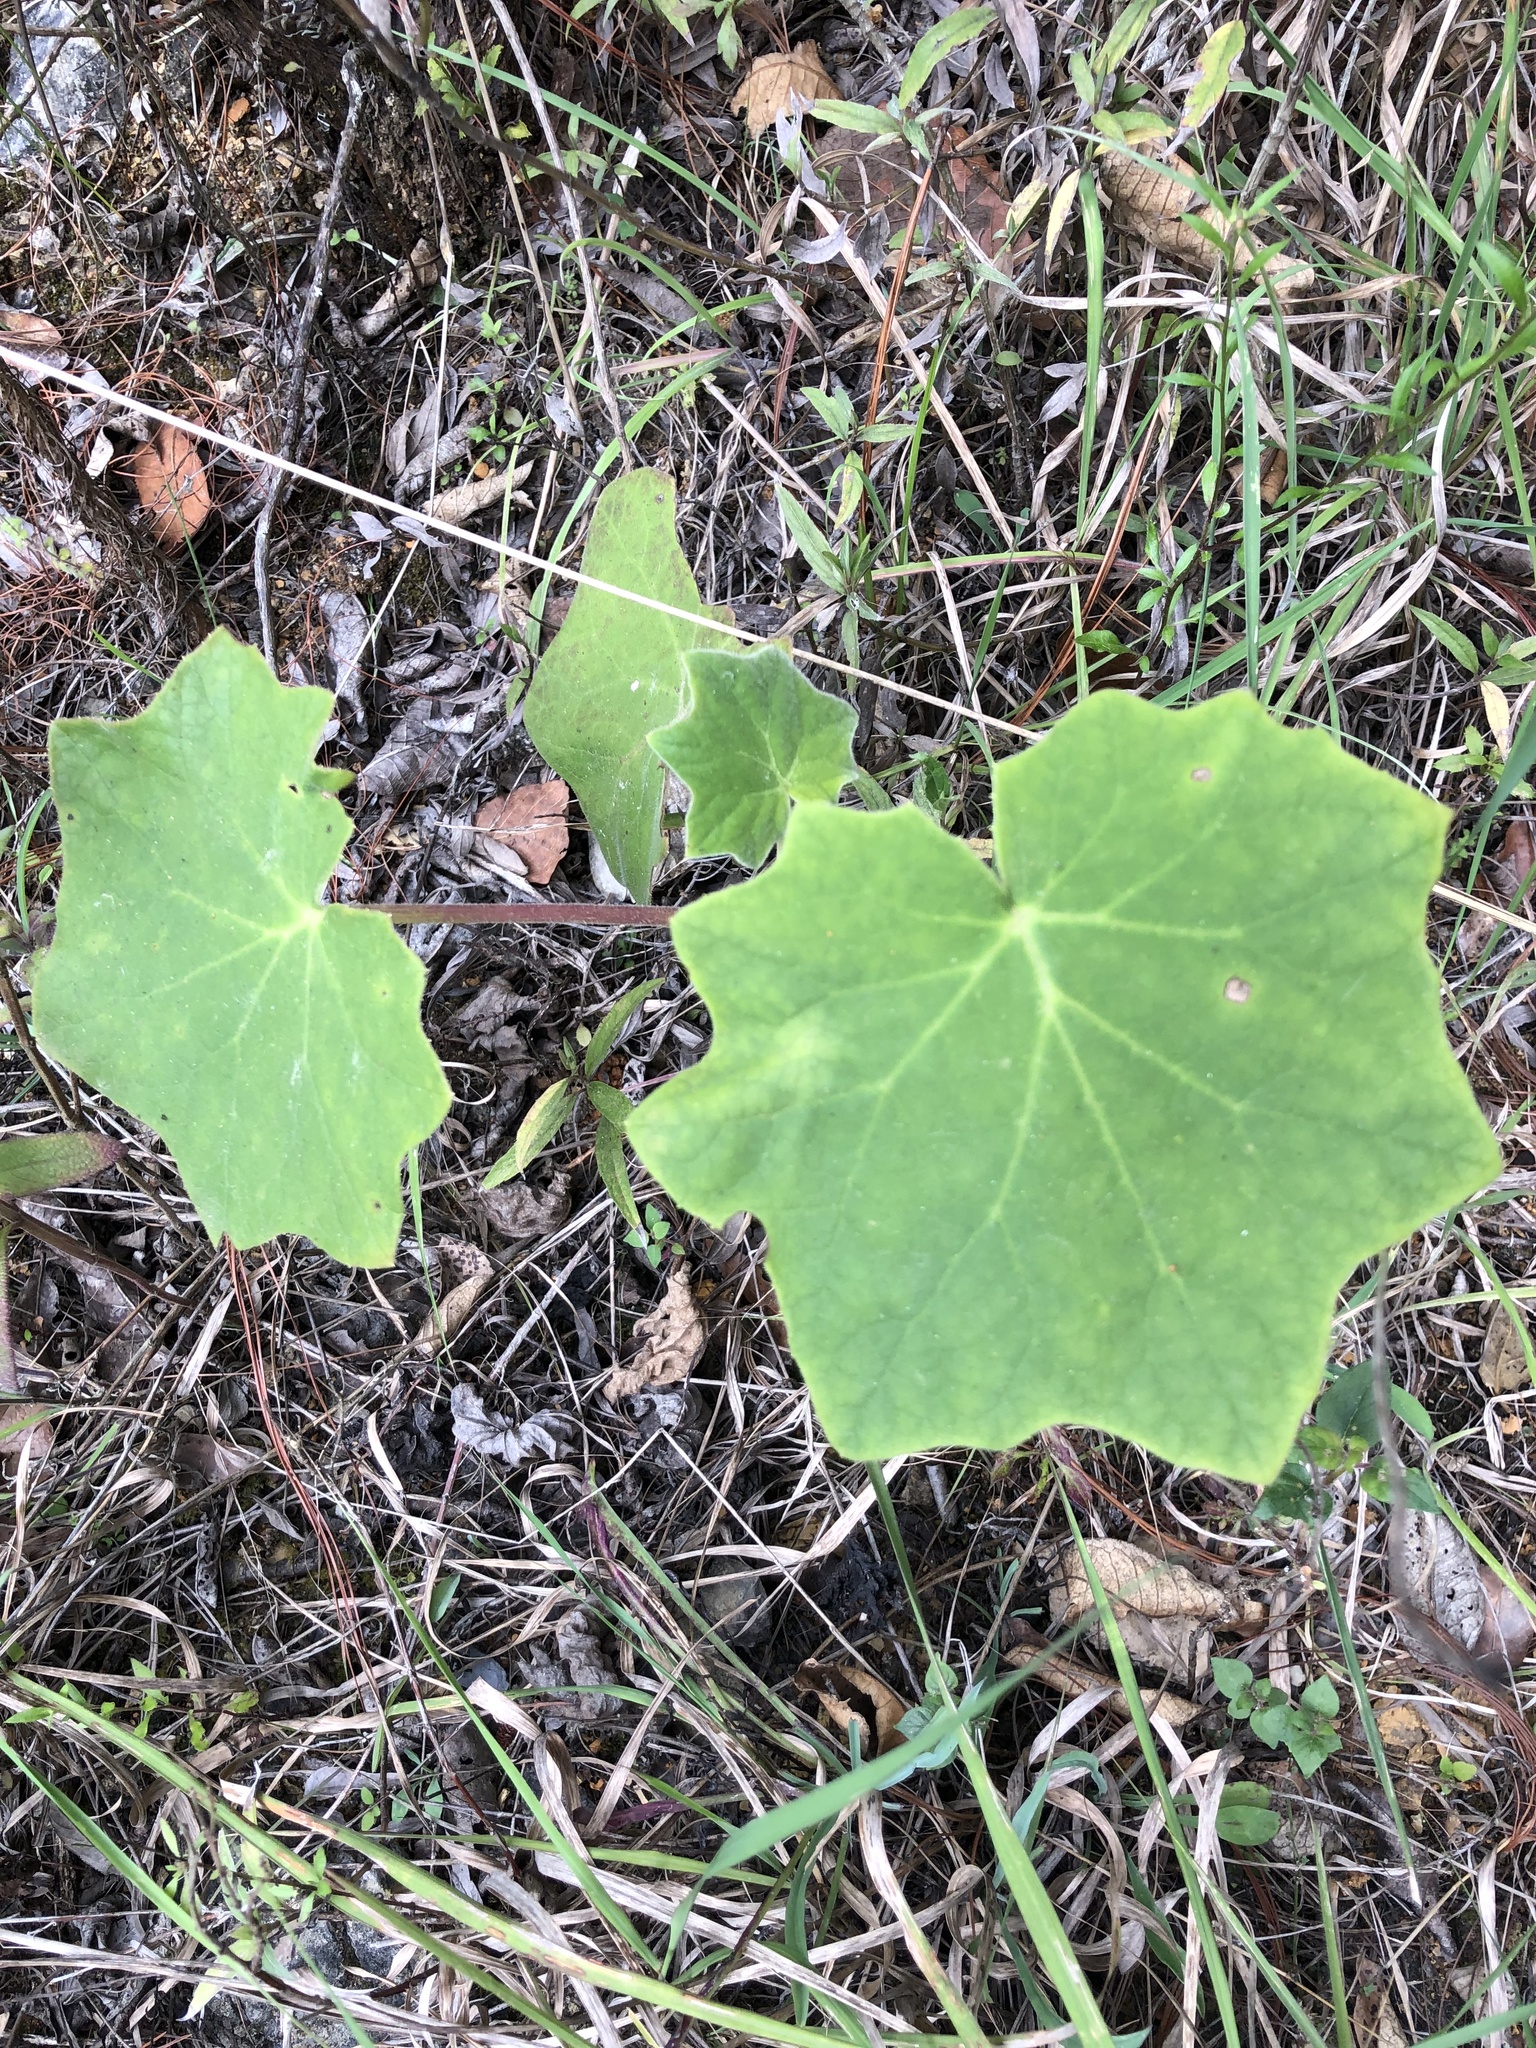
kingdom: Plantae
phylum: Tracheophyta
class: Magnoliopsida
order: Asterales
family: Asteraceae
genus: Roldana
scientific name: Roldana cristobalensis
